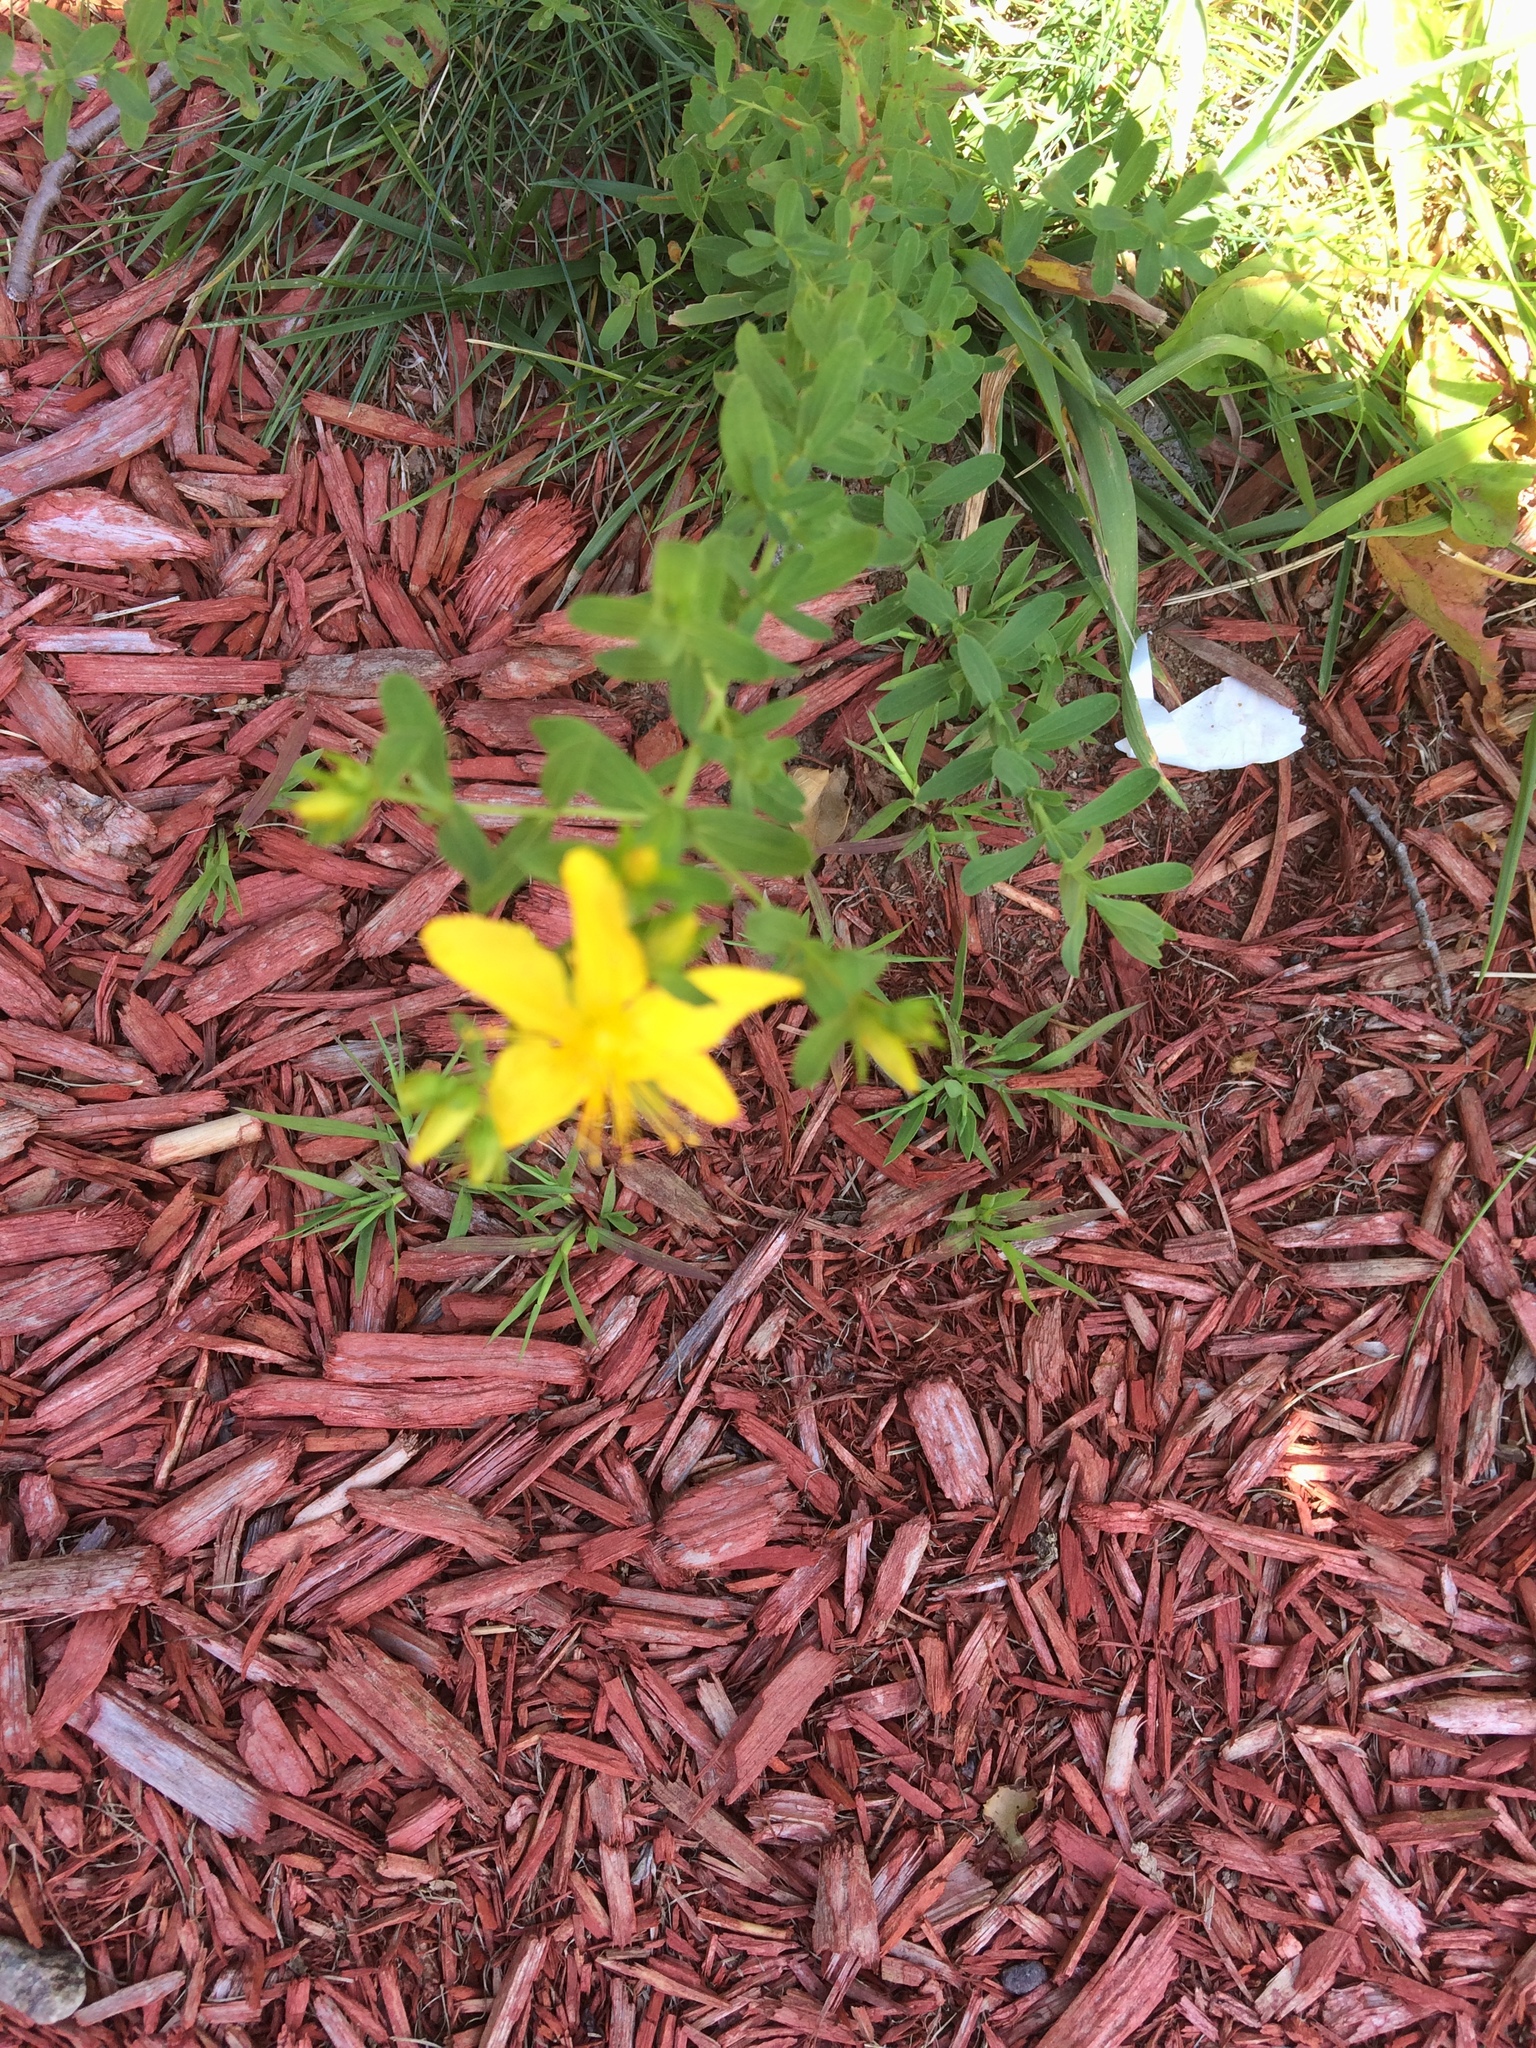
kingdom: Plantae
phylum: Tracheophyta
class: Magnoliopsida
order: Malpighiales
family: Hypericaceae
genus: Hypericum
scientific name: Hypericum perforatum
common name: Common st. johnswort
